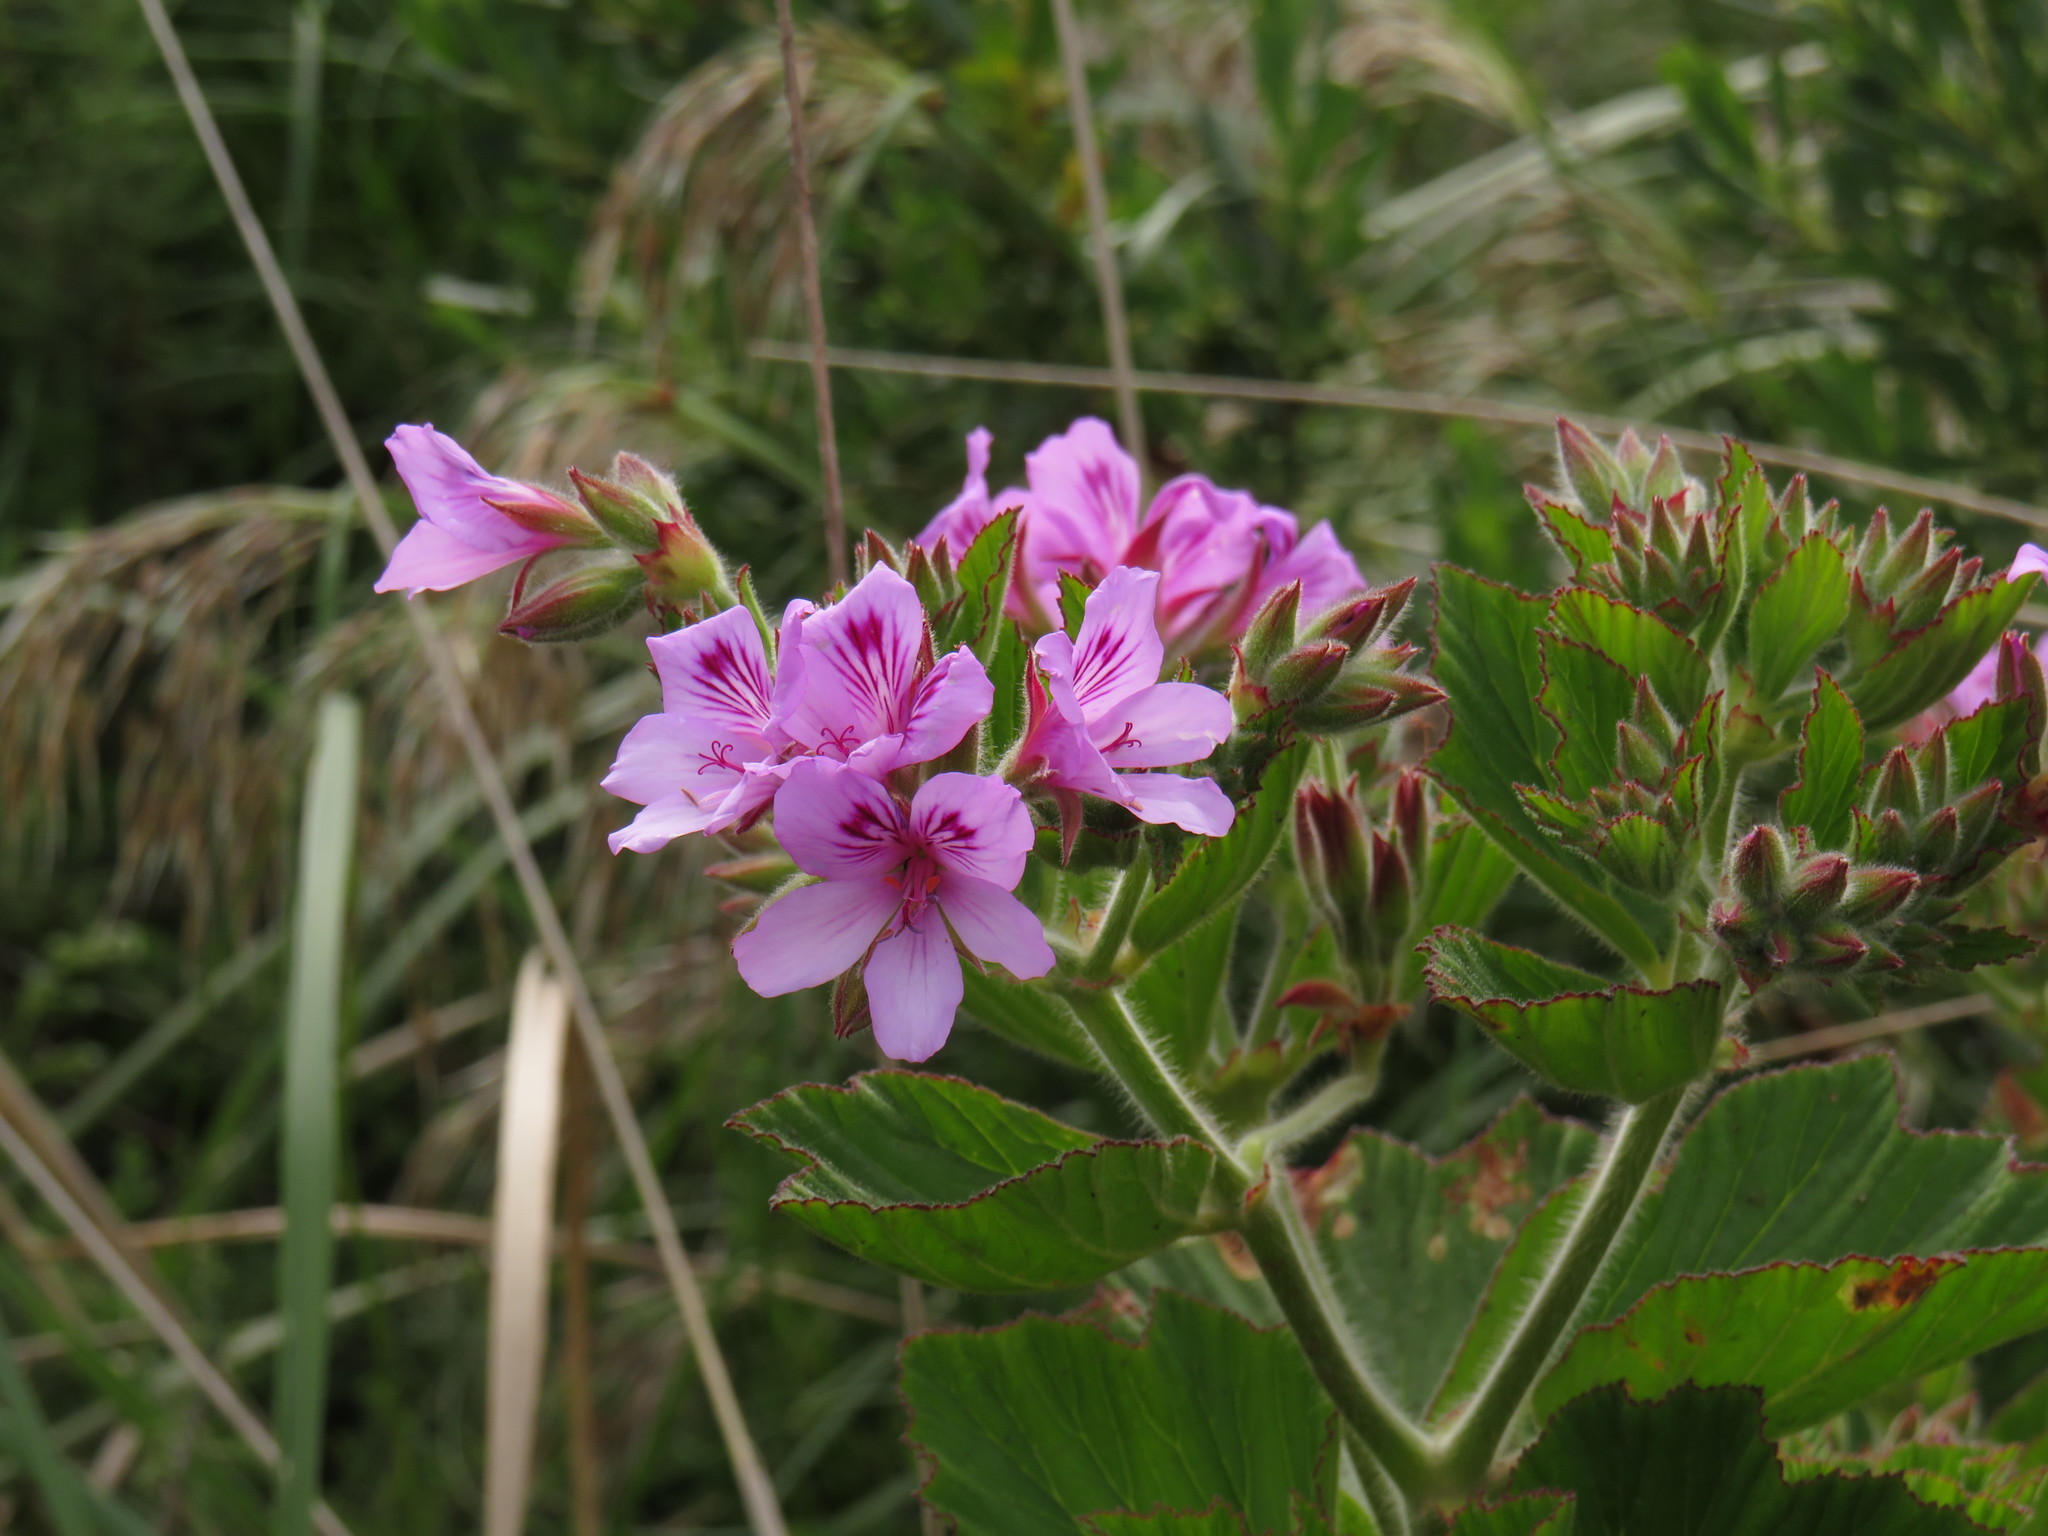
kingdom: Plantae
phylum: Tracheophyta
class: Magnoliopsida
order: Geraniales
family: Geraniaceae
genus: Pelargonium
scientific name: Pelargonium cucullatum
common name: Tree pelargonium
